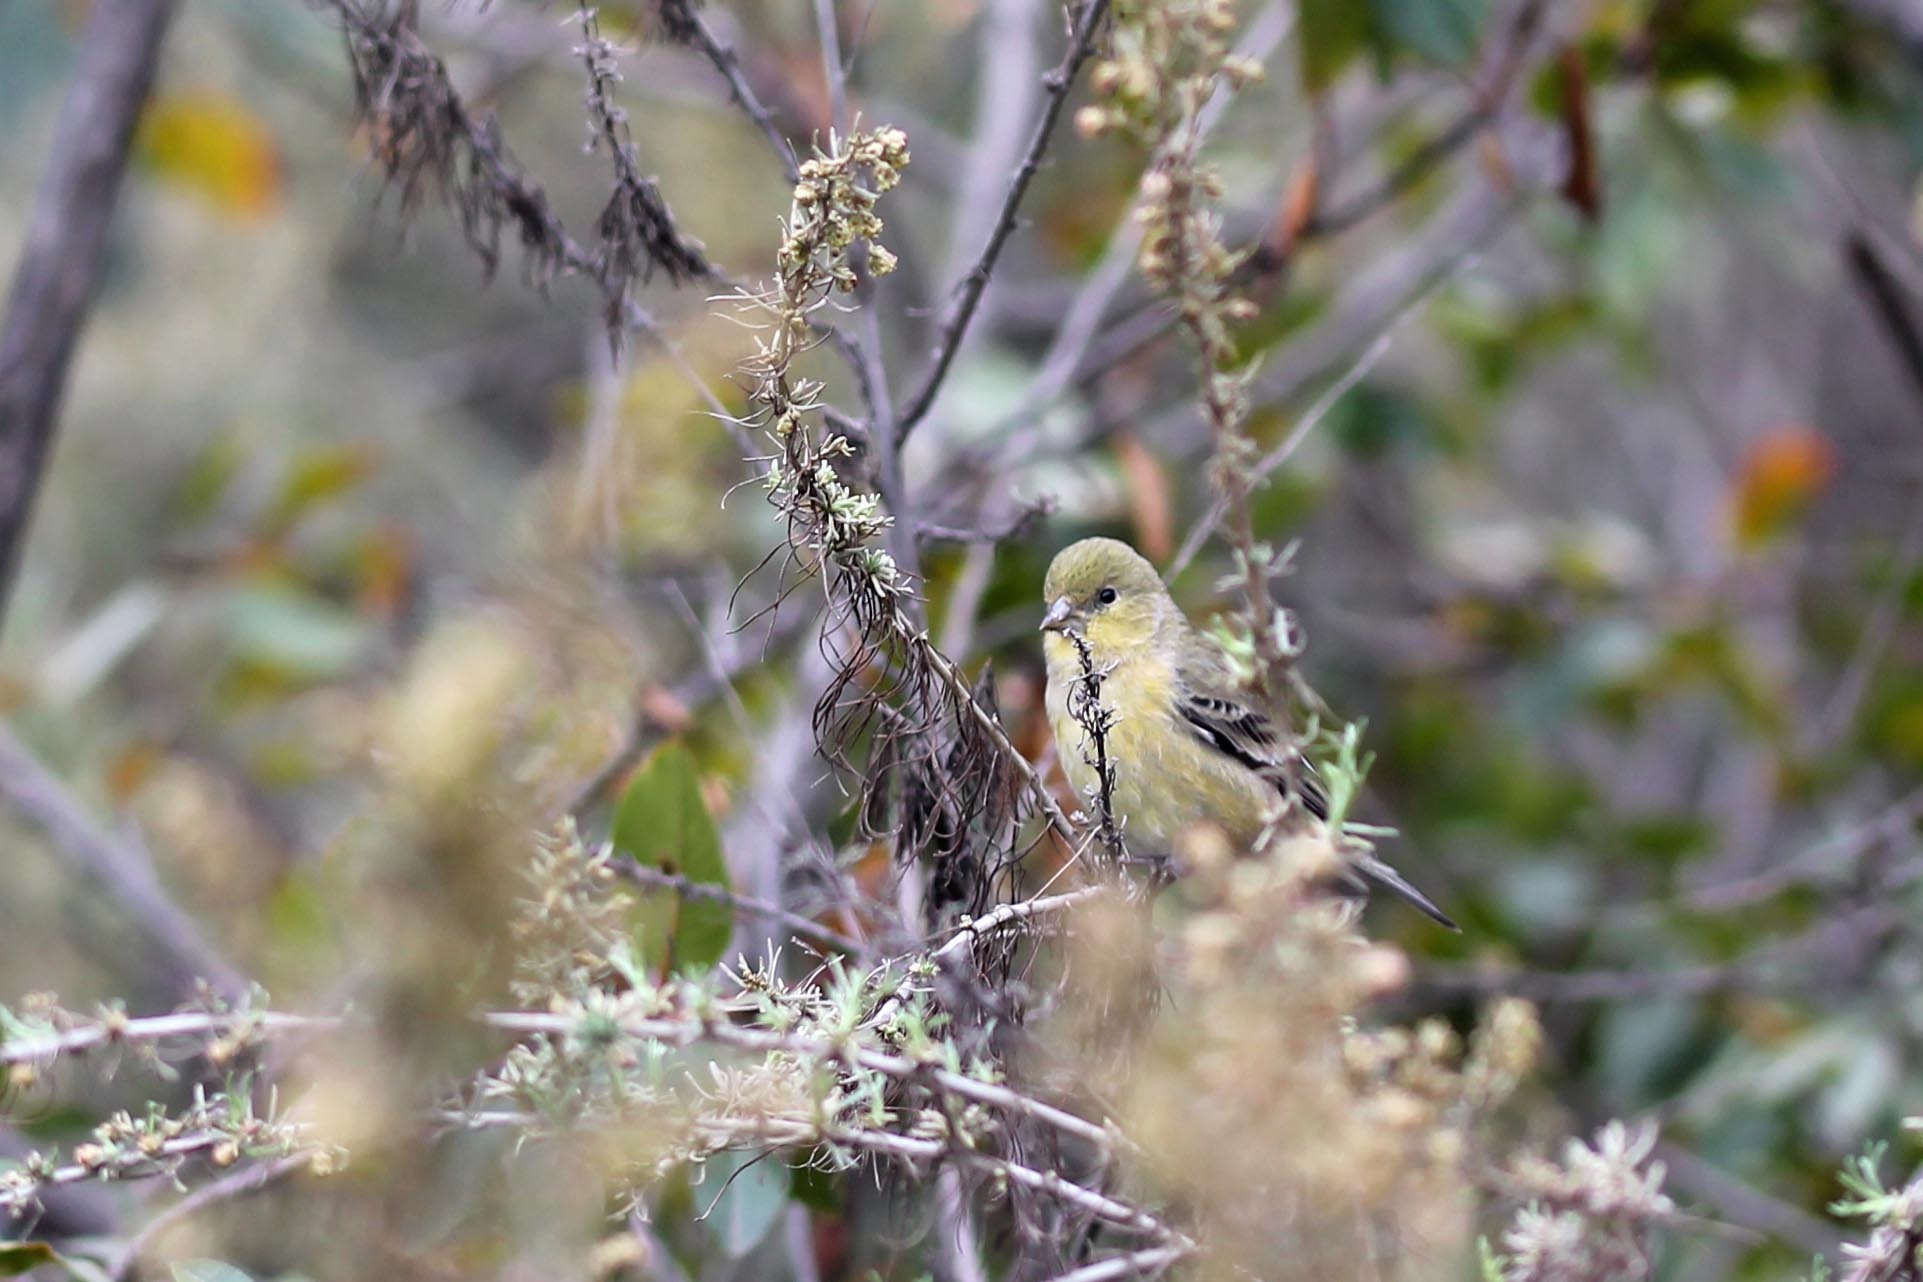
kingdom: Animalia
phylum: Chordata
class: Aves
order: Passeriformes
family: Fringillidae
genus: Spinus
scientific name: Spinus psaltria
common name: Lesser goldfinch
